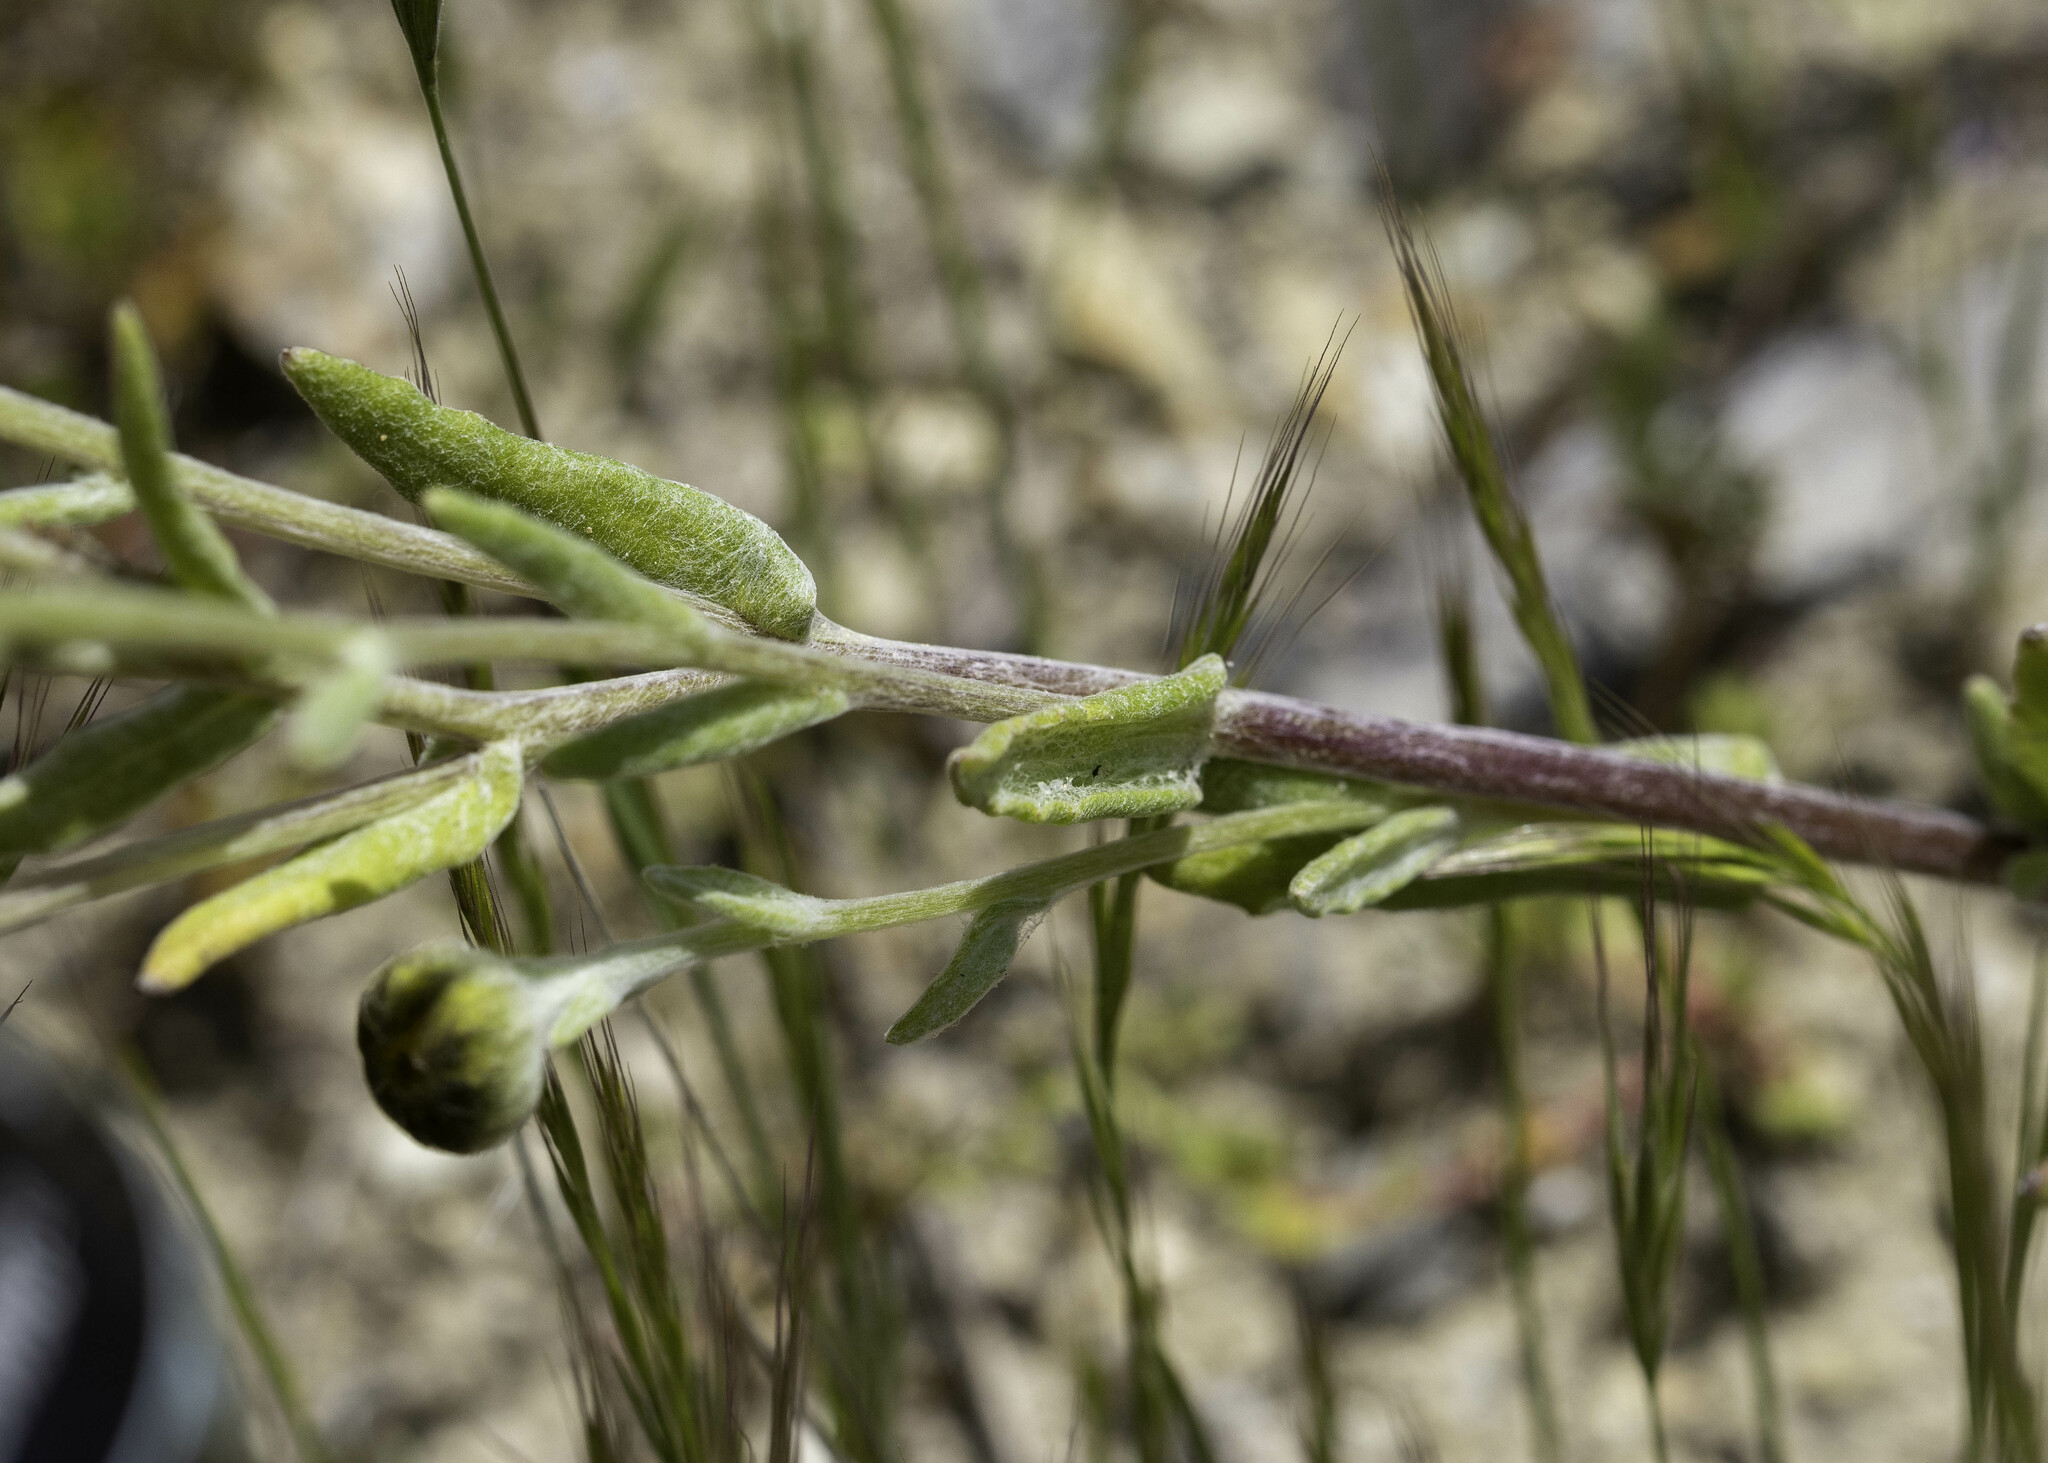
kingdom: Plantae
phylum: Tracheophyta
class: Magnoliopsida
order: Asterales
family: Asteraceae
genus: Monolopia
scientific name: Monolopia lanceolata
